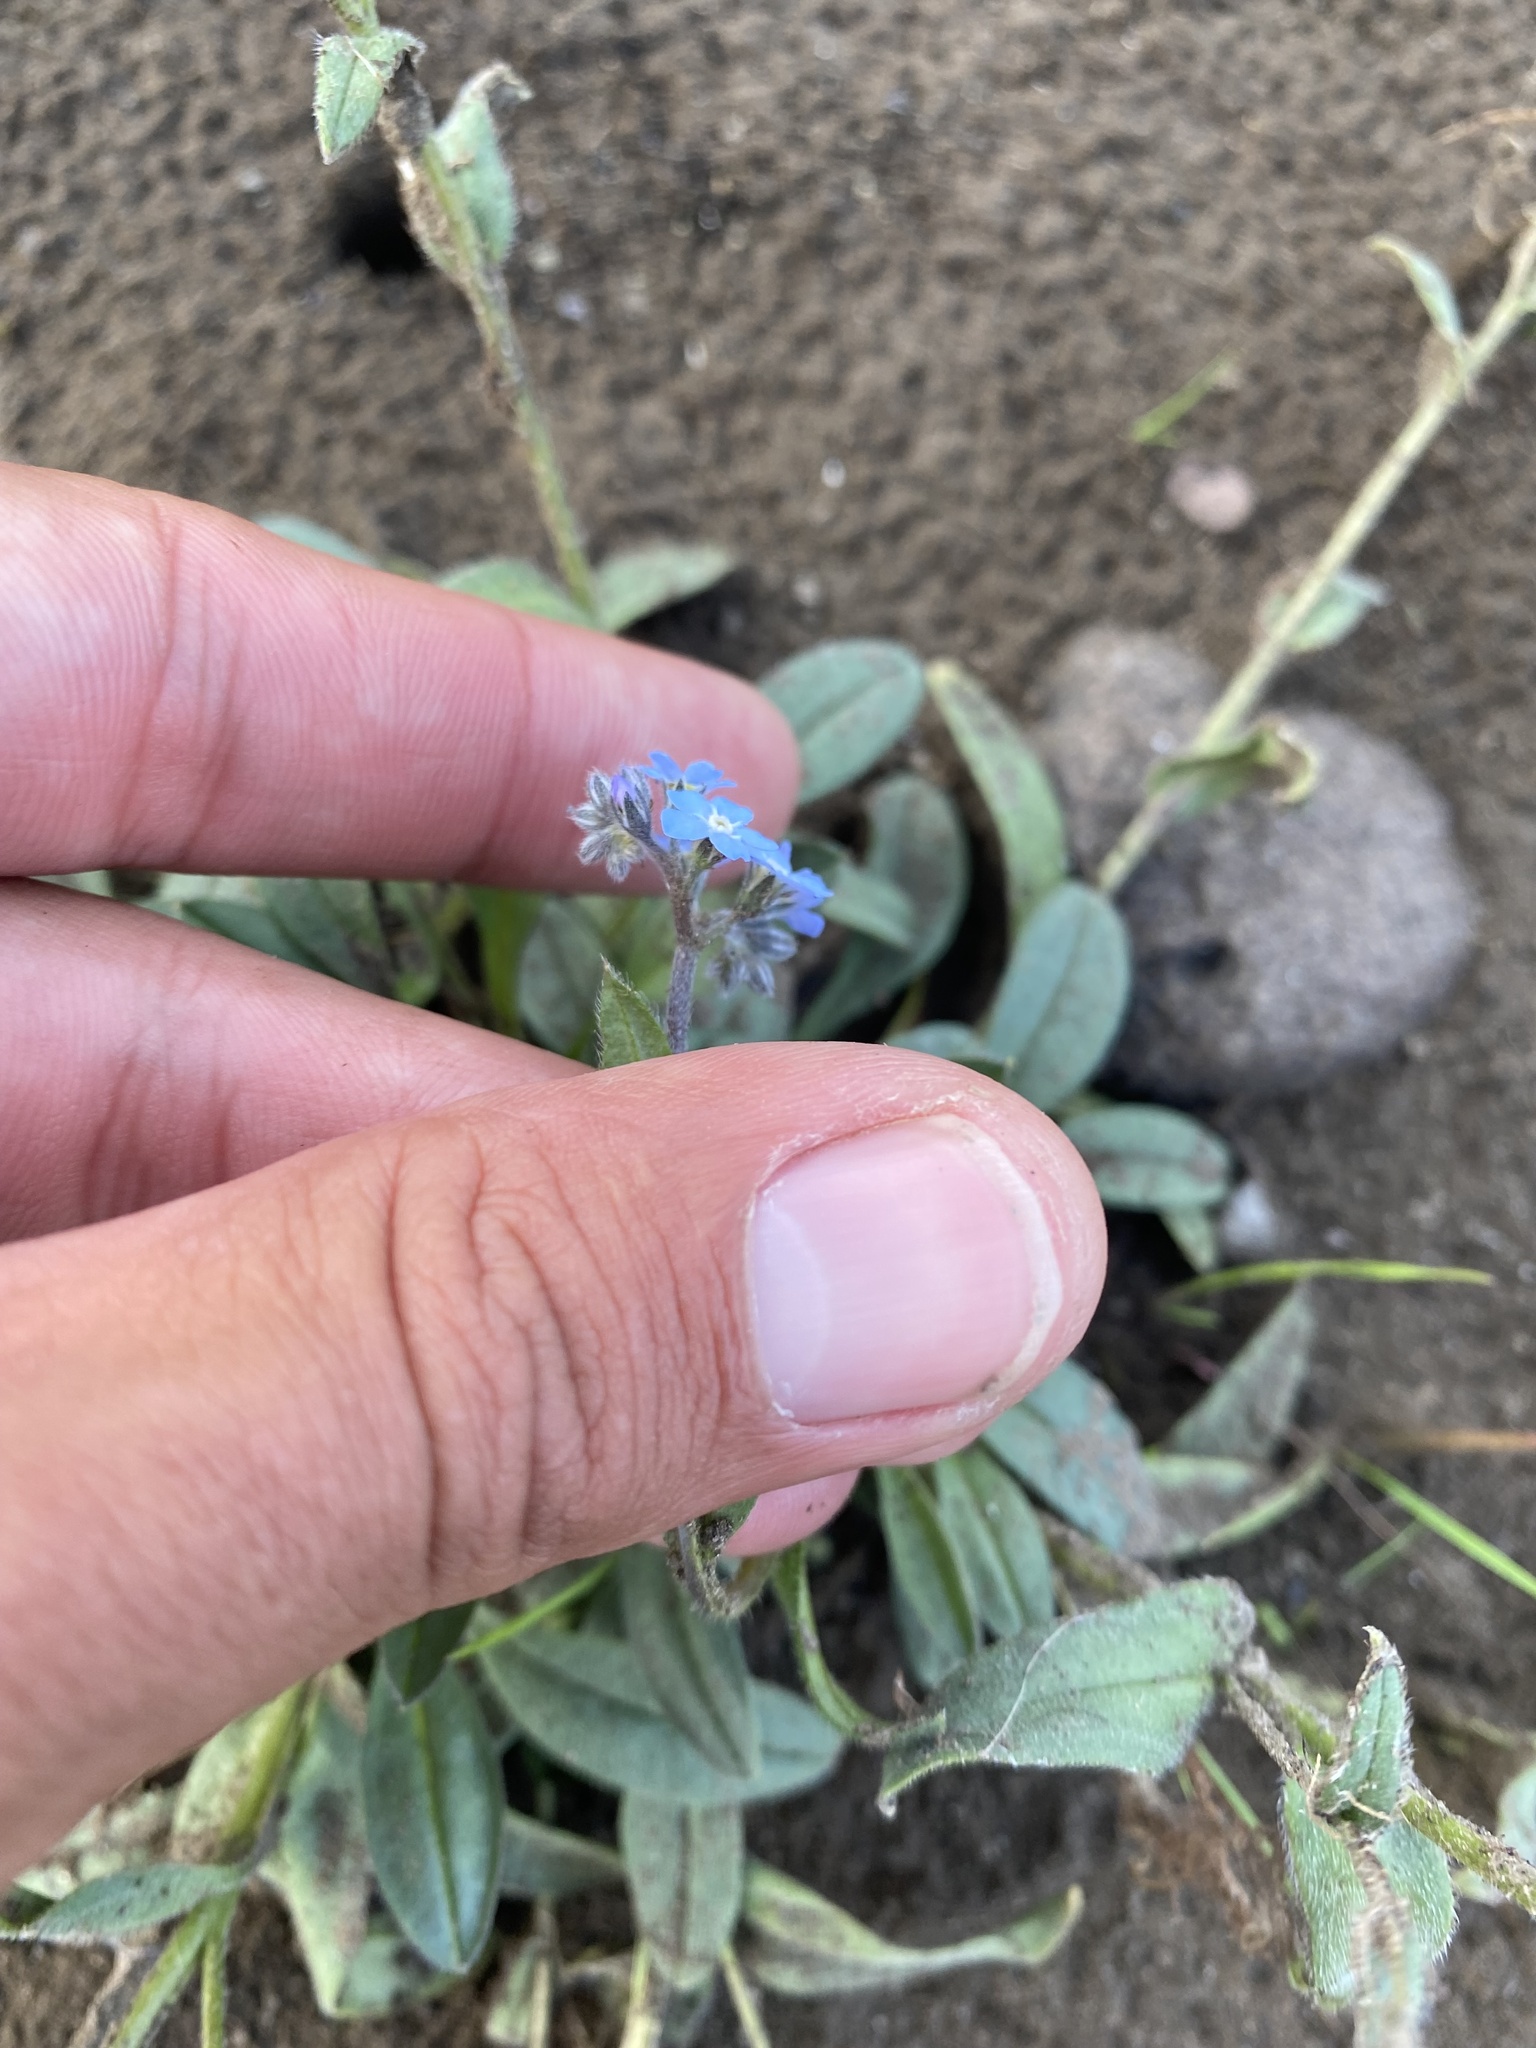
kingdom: Plantae
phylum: Tracheophyta
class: Magnoliopsida
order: Boraginales
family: Boraginaceae
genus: Myosotis
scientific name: Myosotis asiatica
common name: Asian forget-me-not
